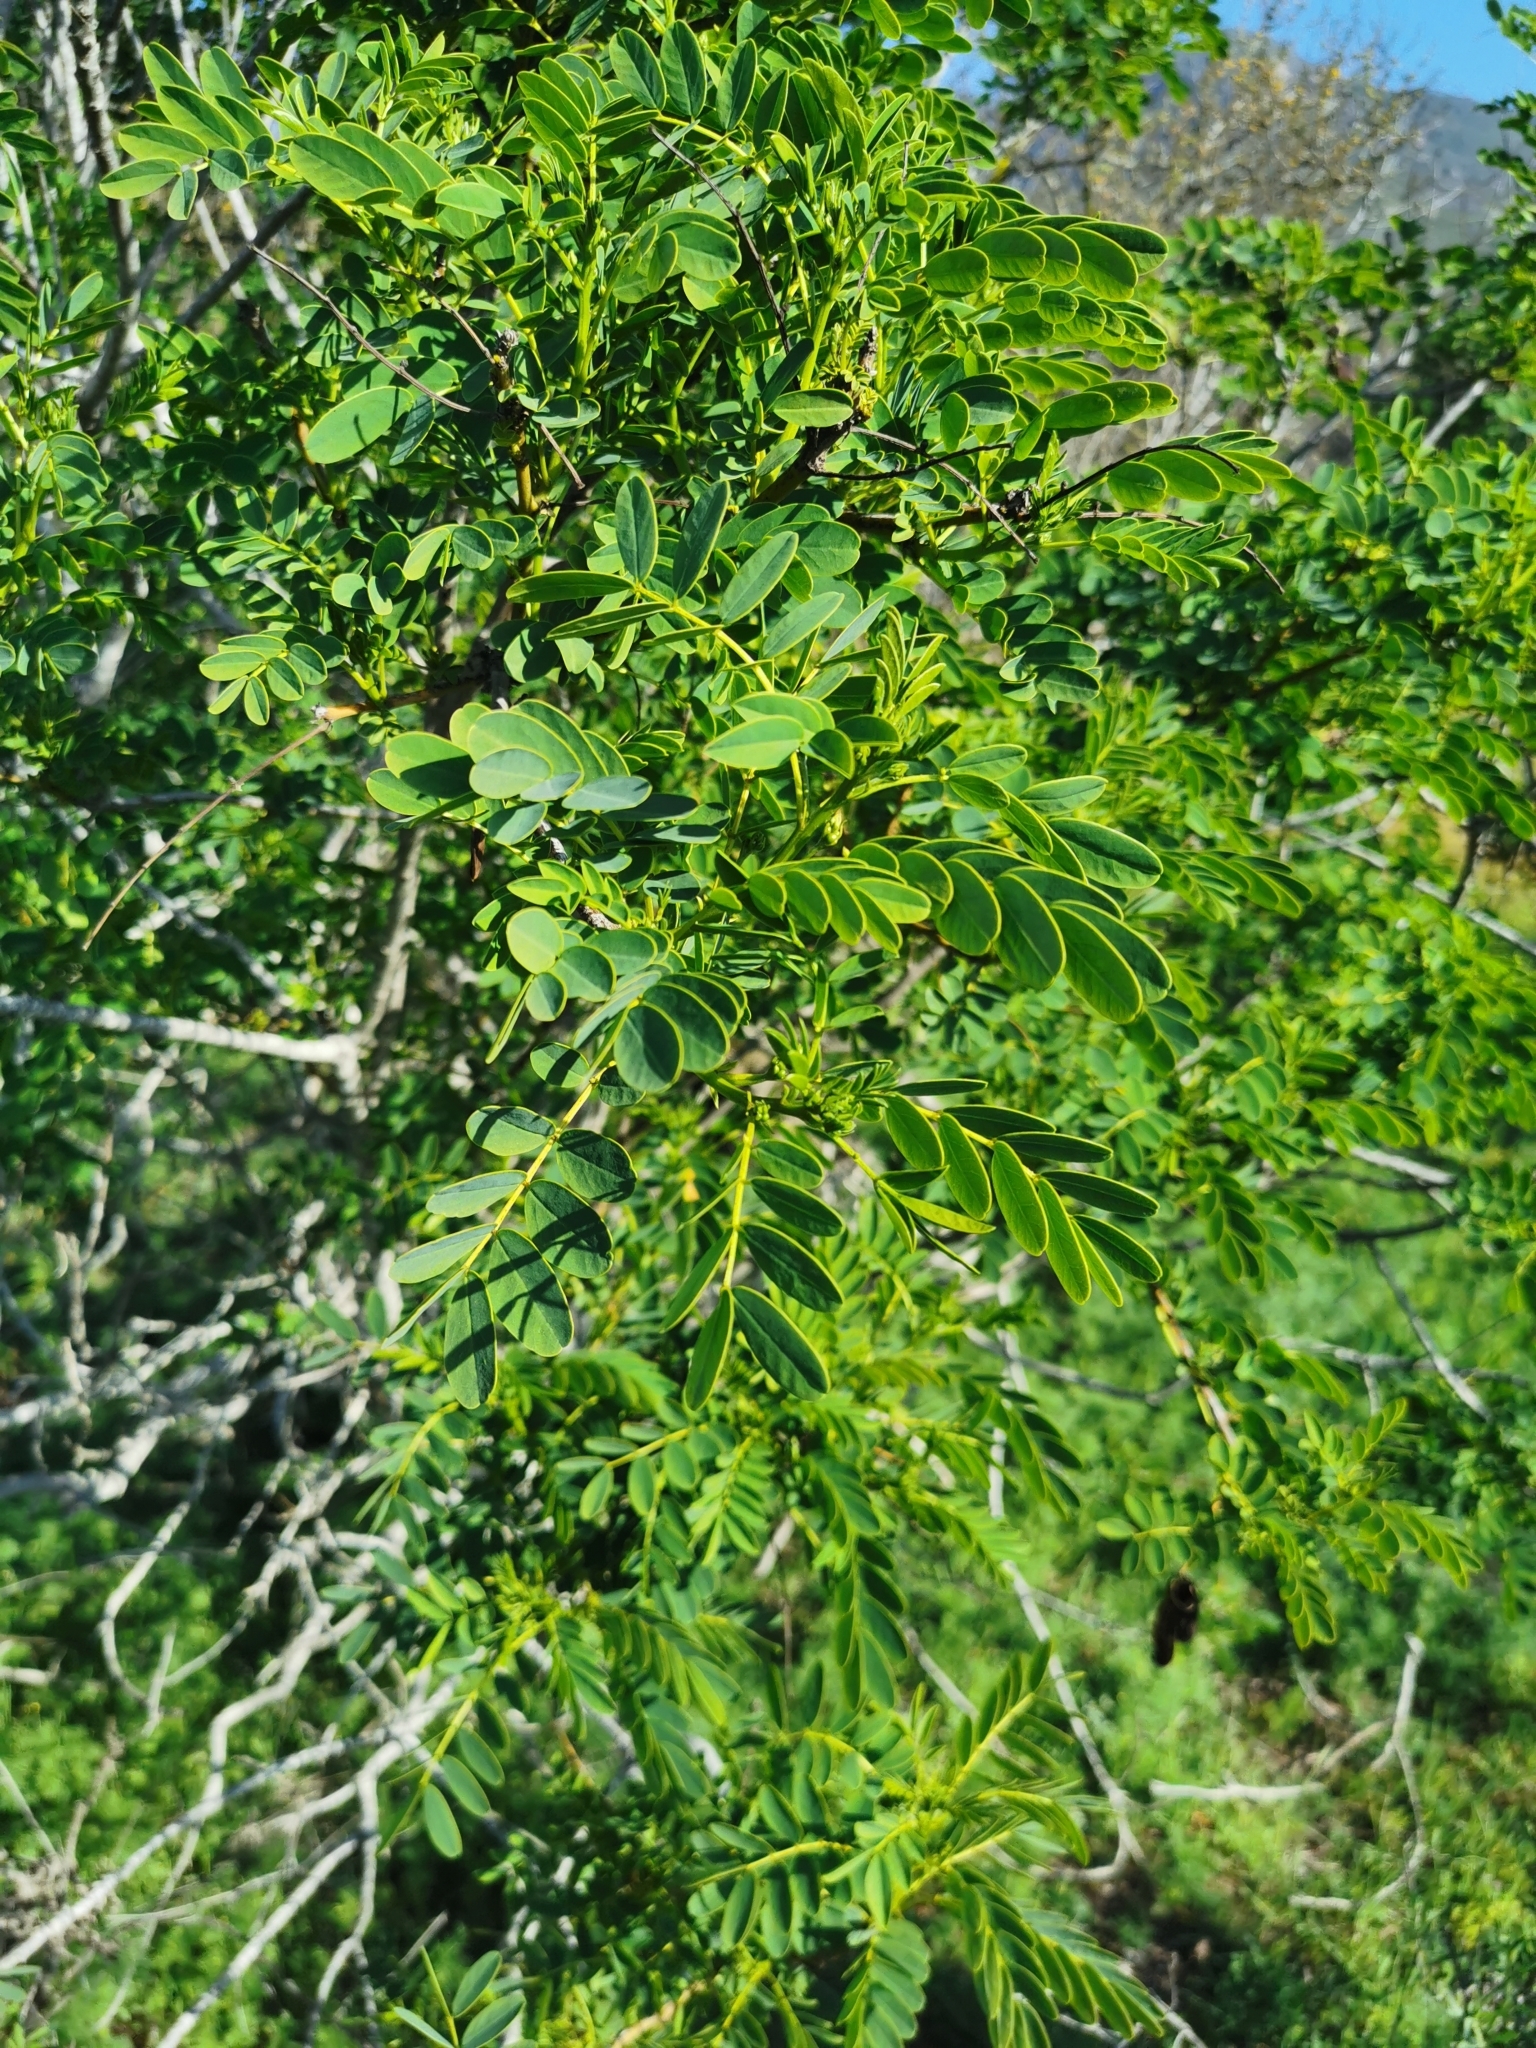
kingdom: Plantae
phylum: Tracheophyta
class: Magnoliopsida
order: Fabales
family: Fabaceae
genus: Senna
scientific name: Senna candolleana
